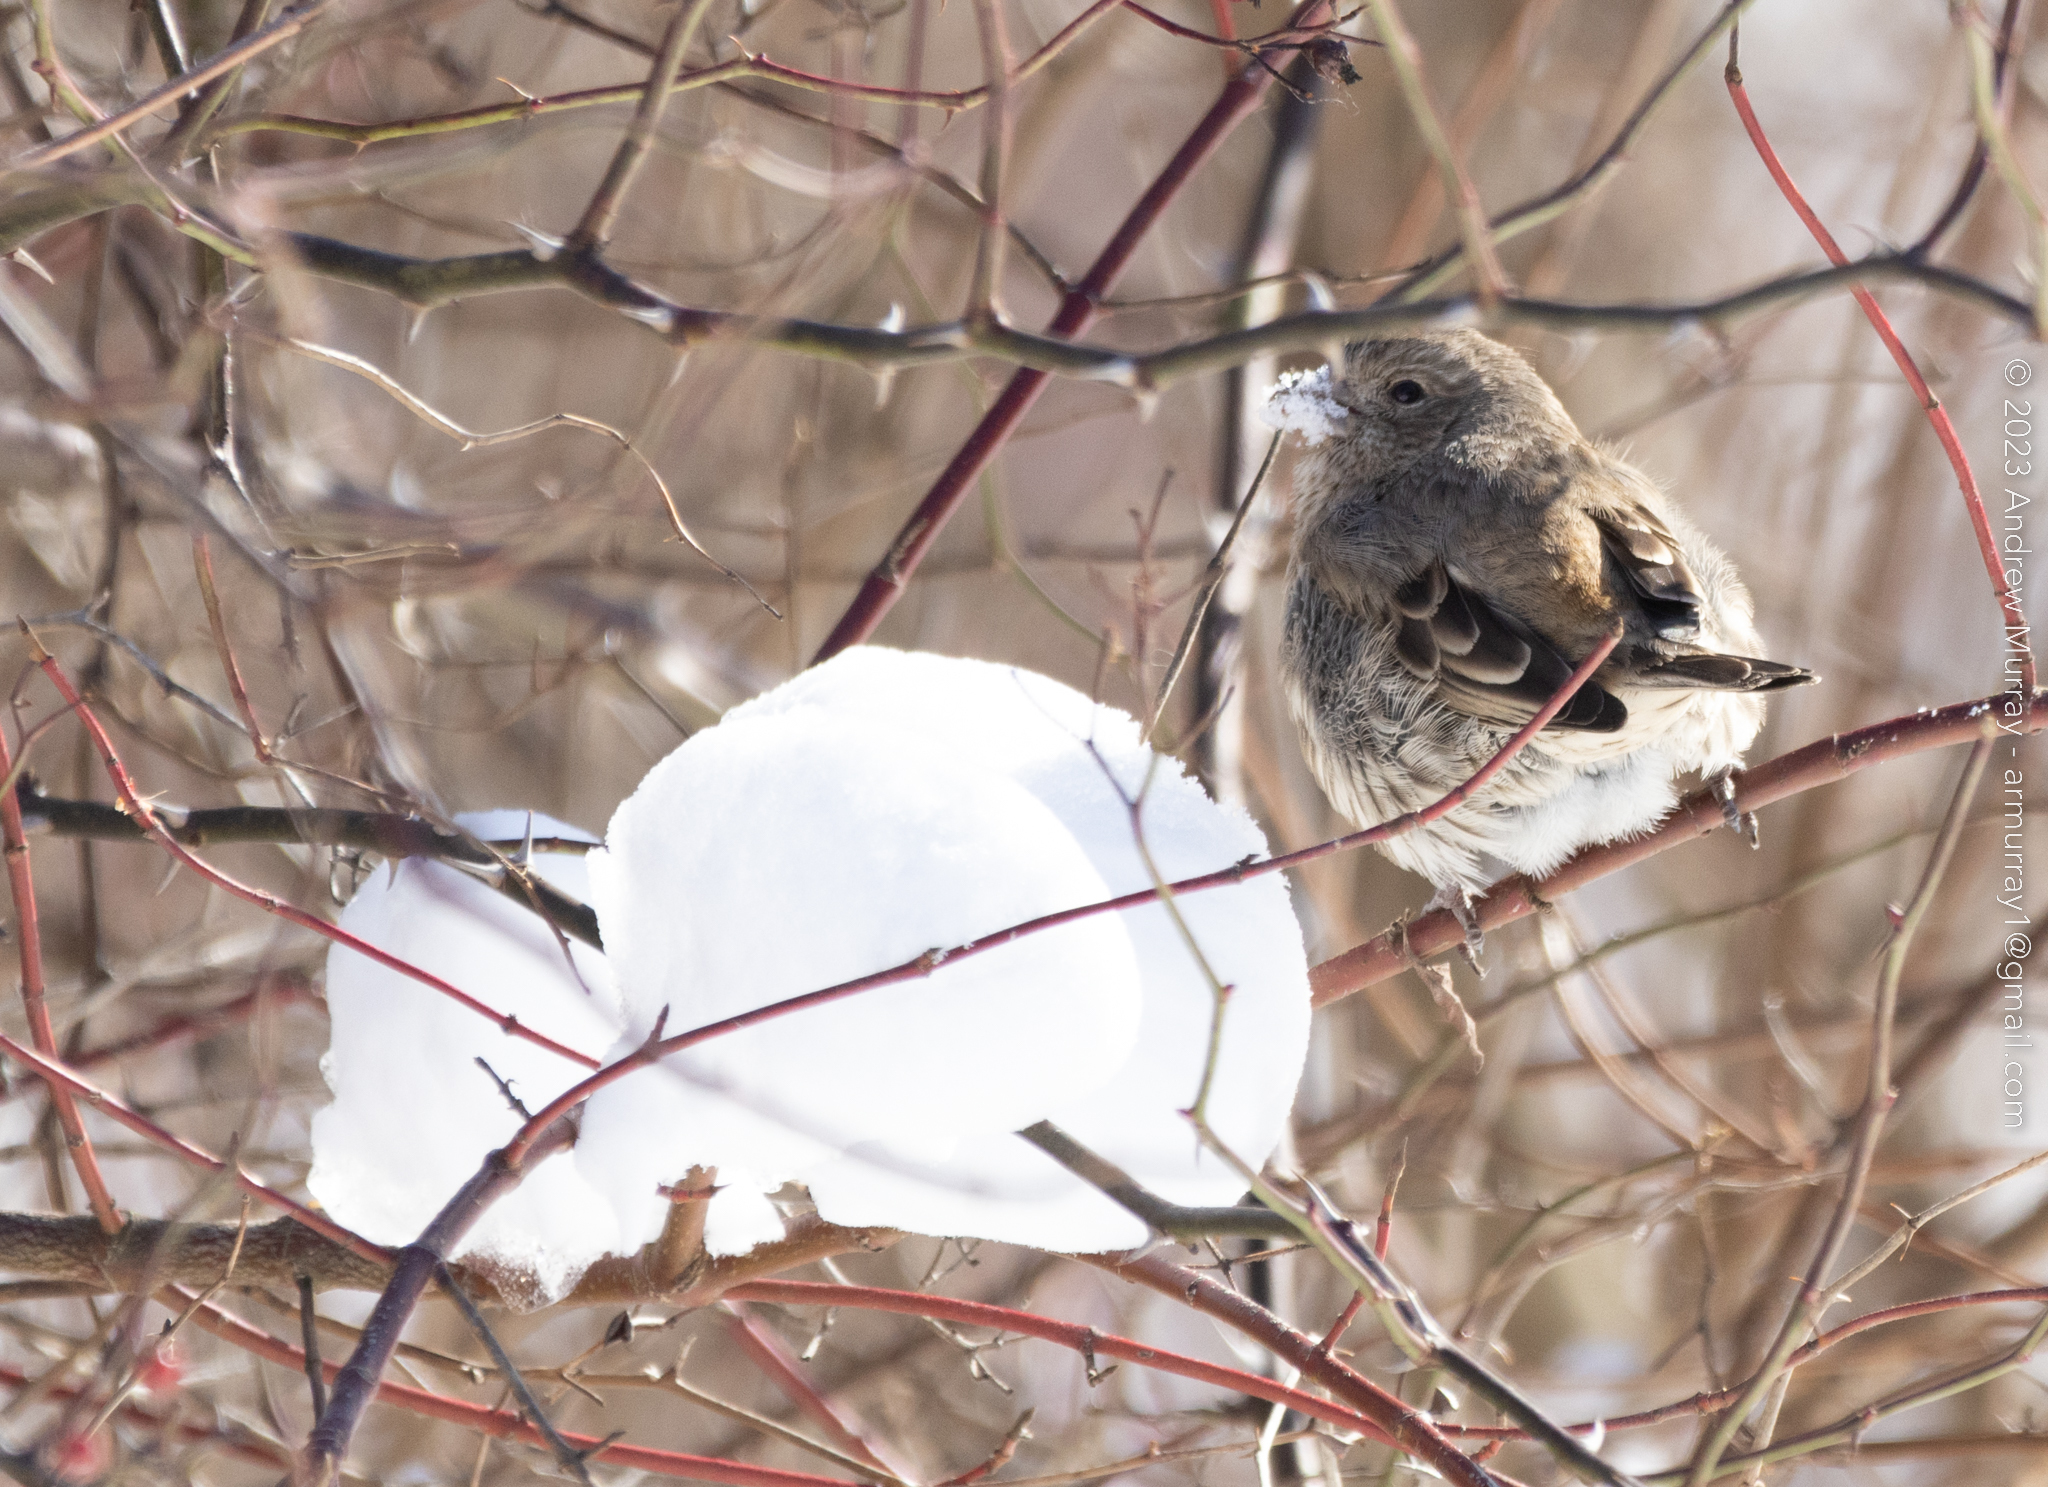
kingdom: Animalia
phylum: Chordata
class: Aves
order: Passeriformes
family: Passeridae
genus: Passer
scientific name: Passer domesticus
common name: House sparrow
